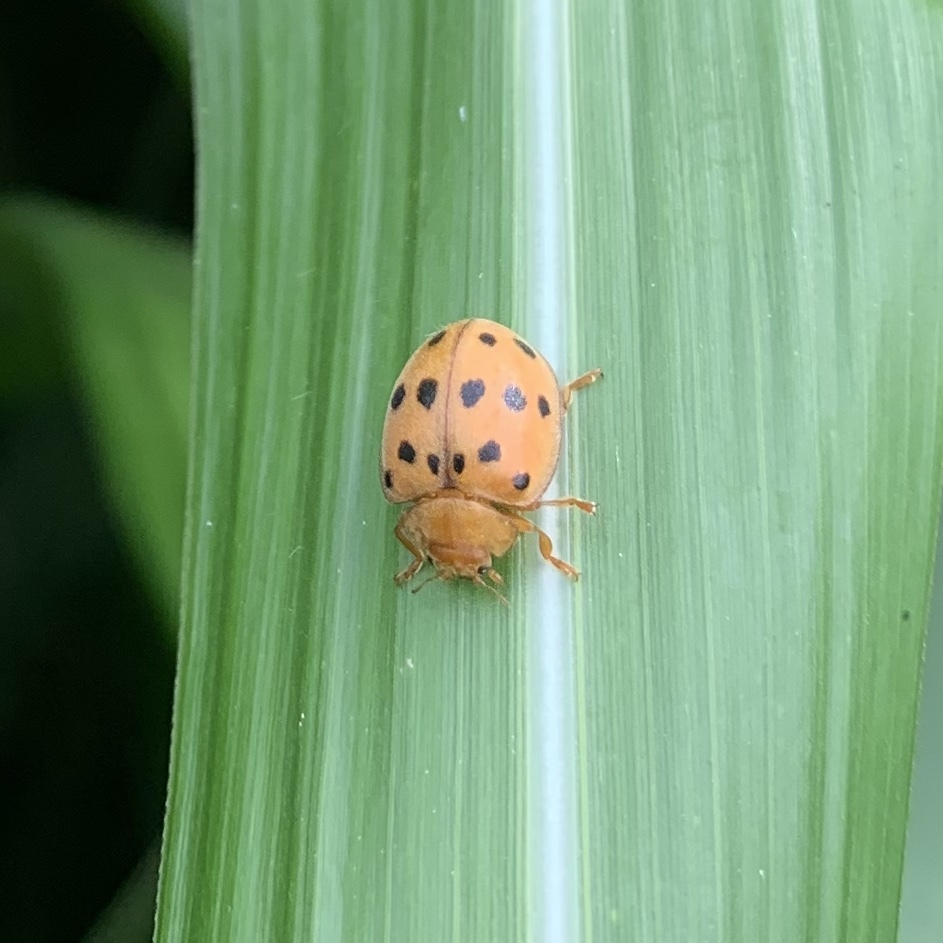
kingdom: Animalia
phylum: Arthropoda
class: Insecta
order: Coleoptera
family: Coccinellidae
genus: Epilachna
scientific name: Epilachna varivestis
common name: Ladybird beetle
